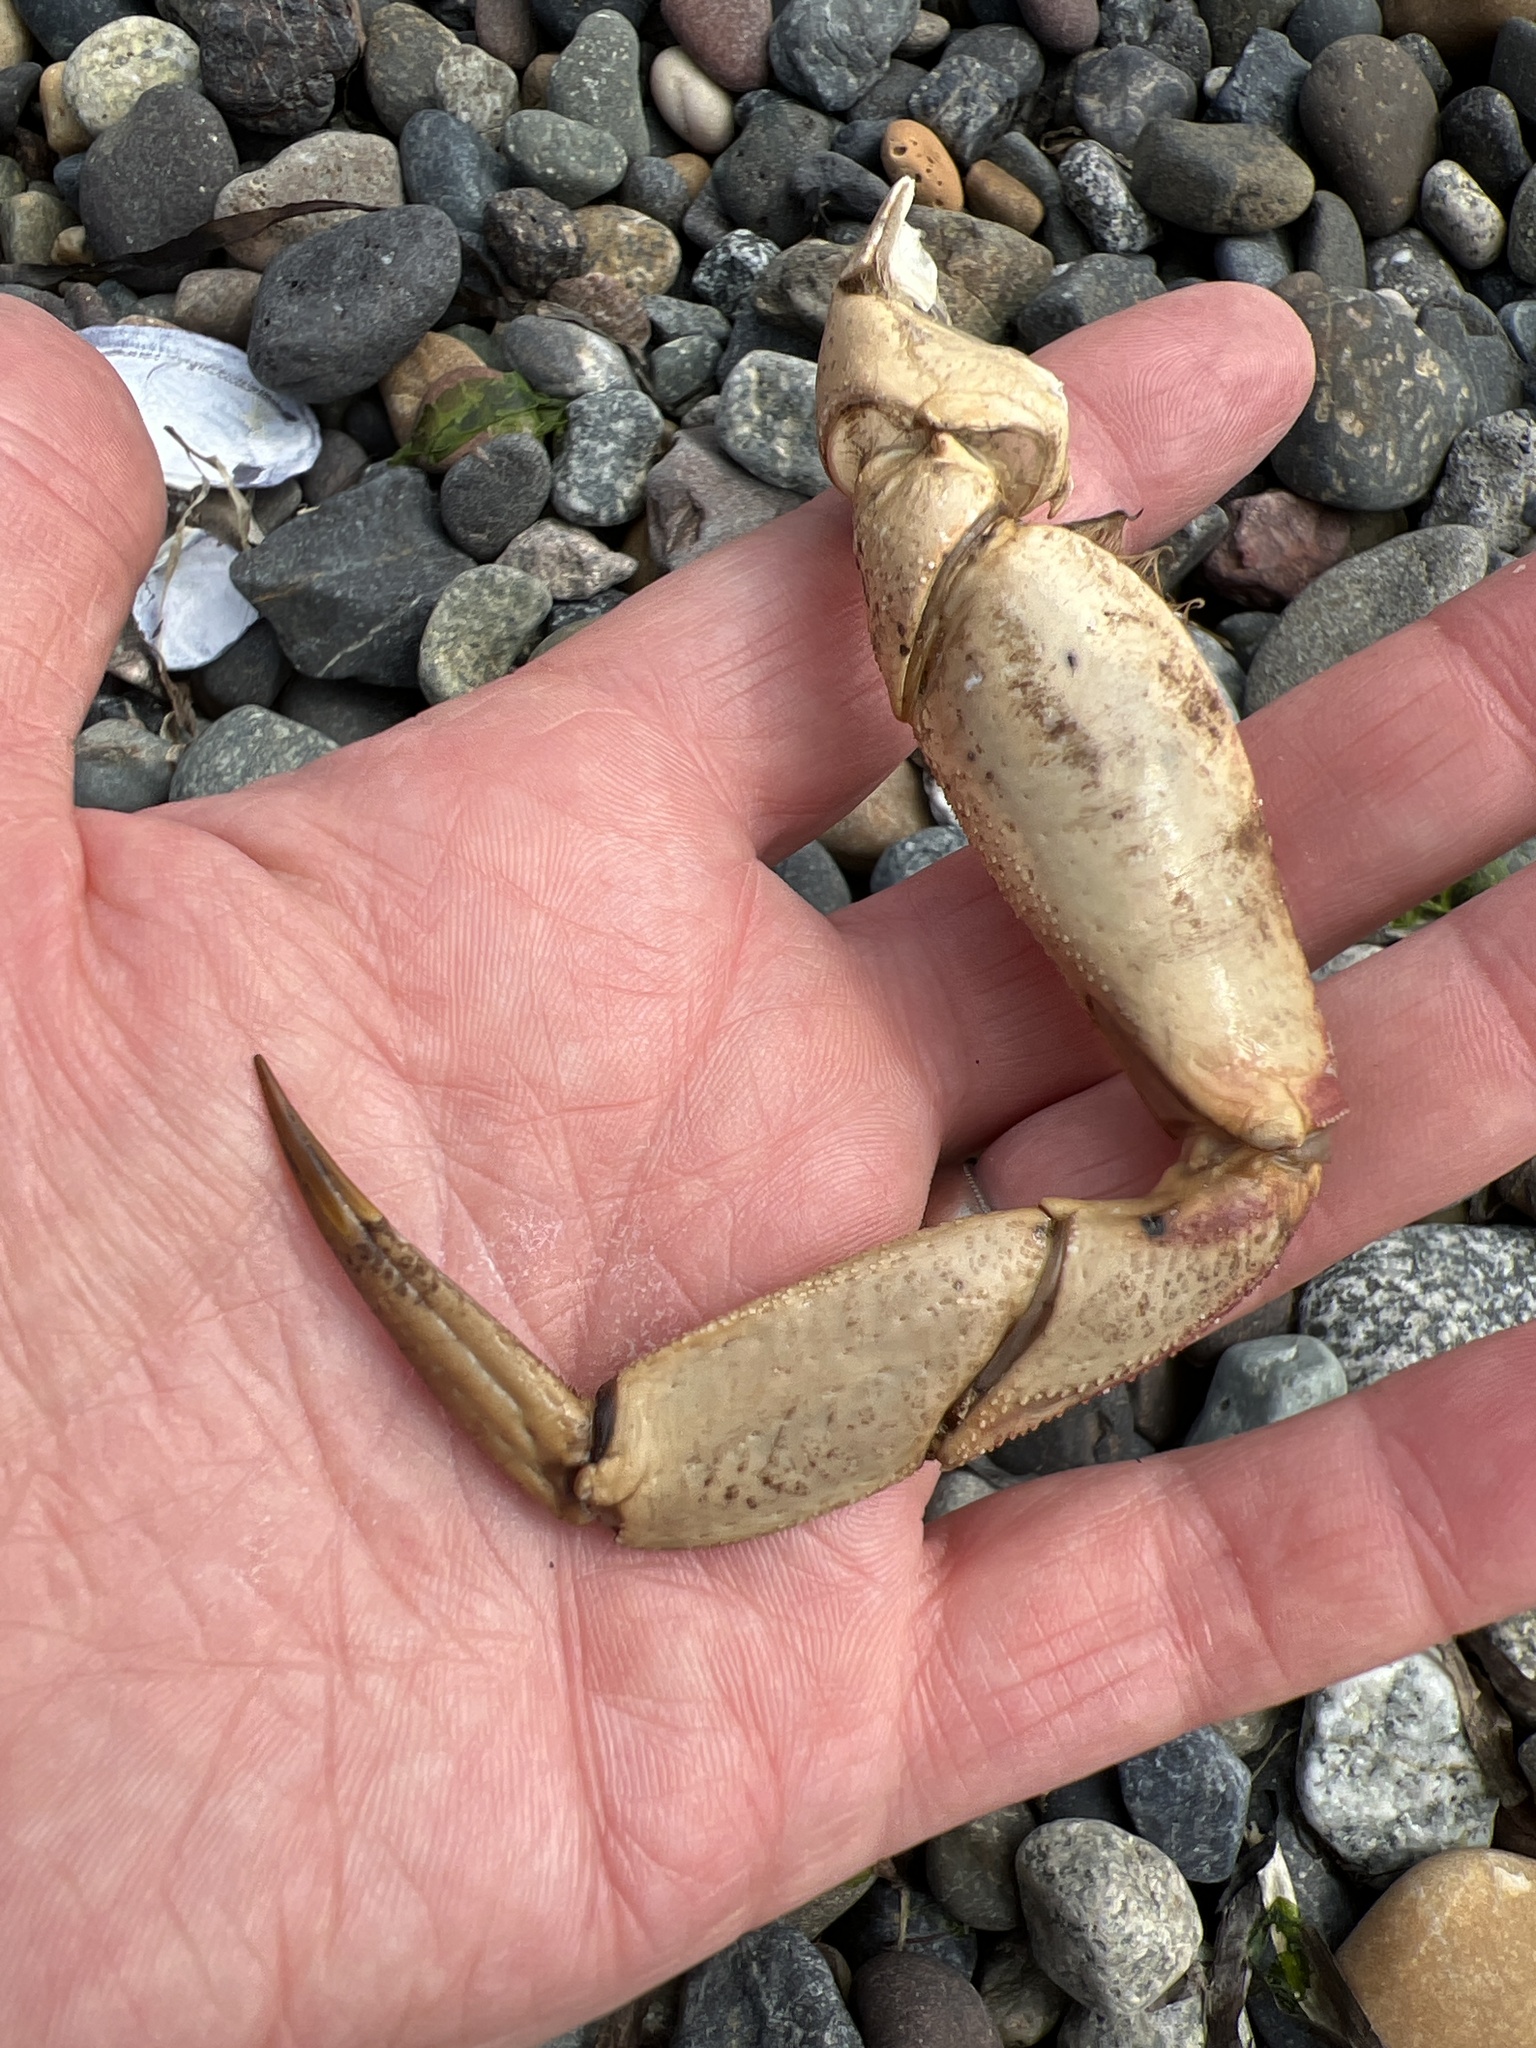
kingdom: Animalia
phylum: Arthropoda
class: Malacostraca
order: Decapoda
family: Cancridae
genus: Metacarcinus
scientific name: Metacarcinus magister
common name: Californian crab
